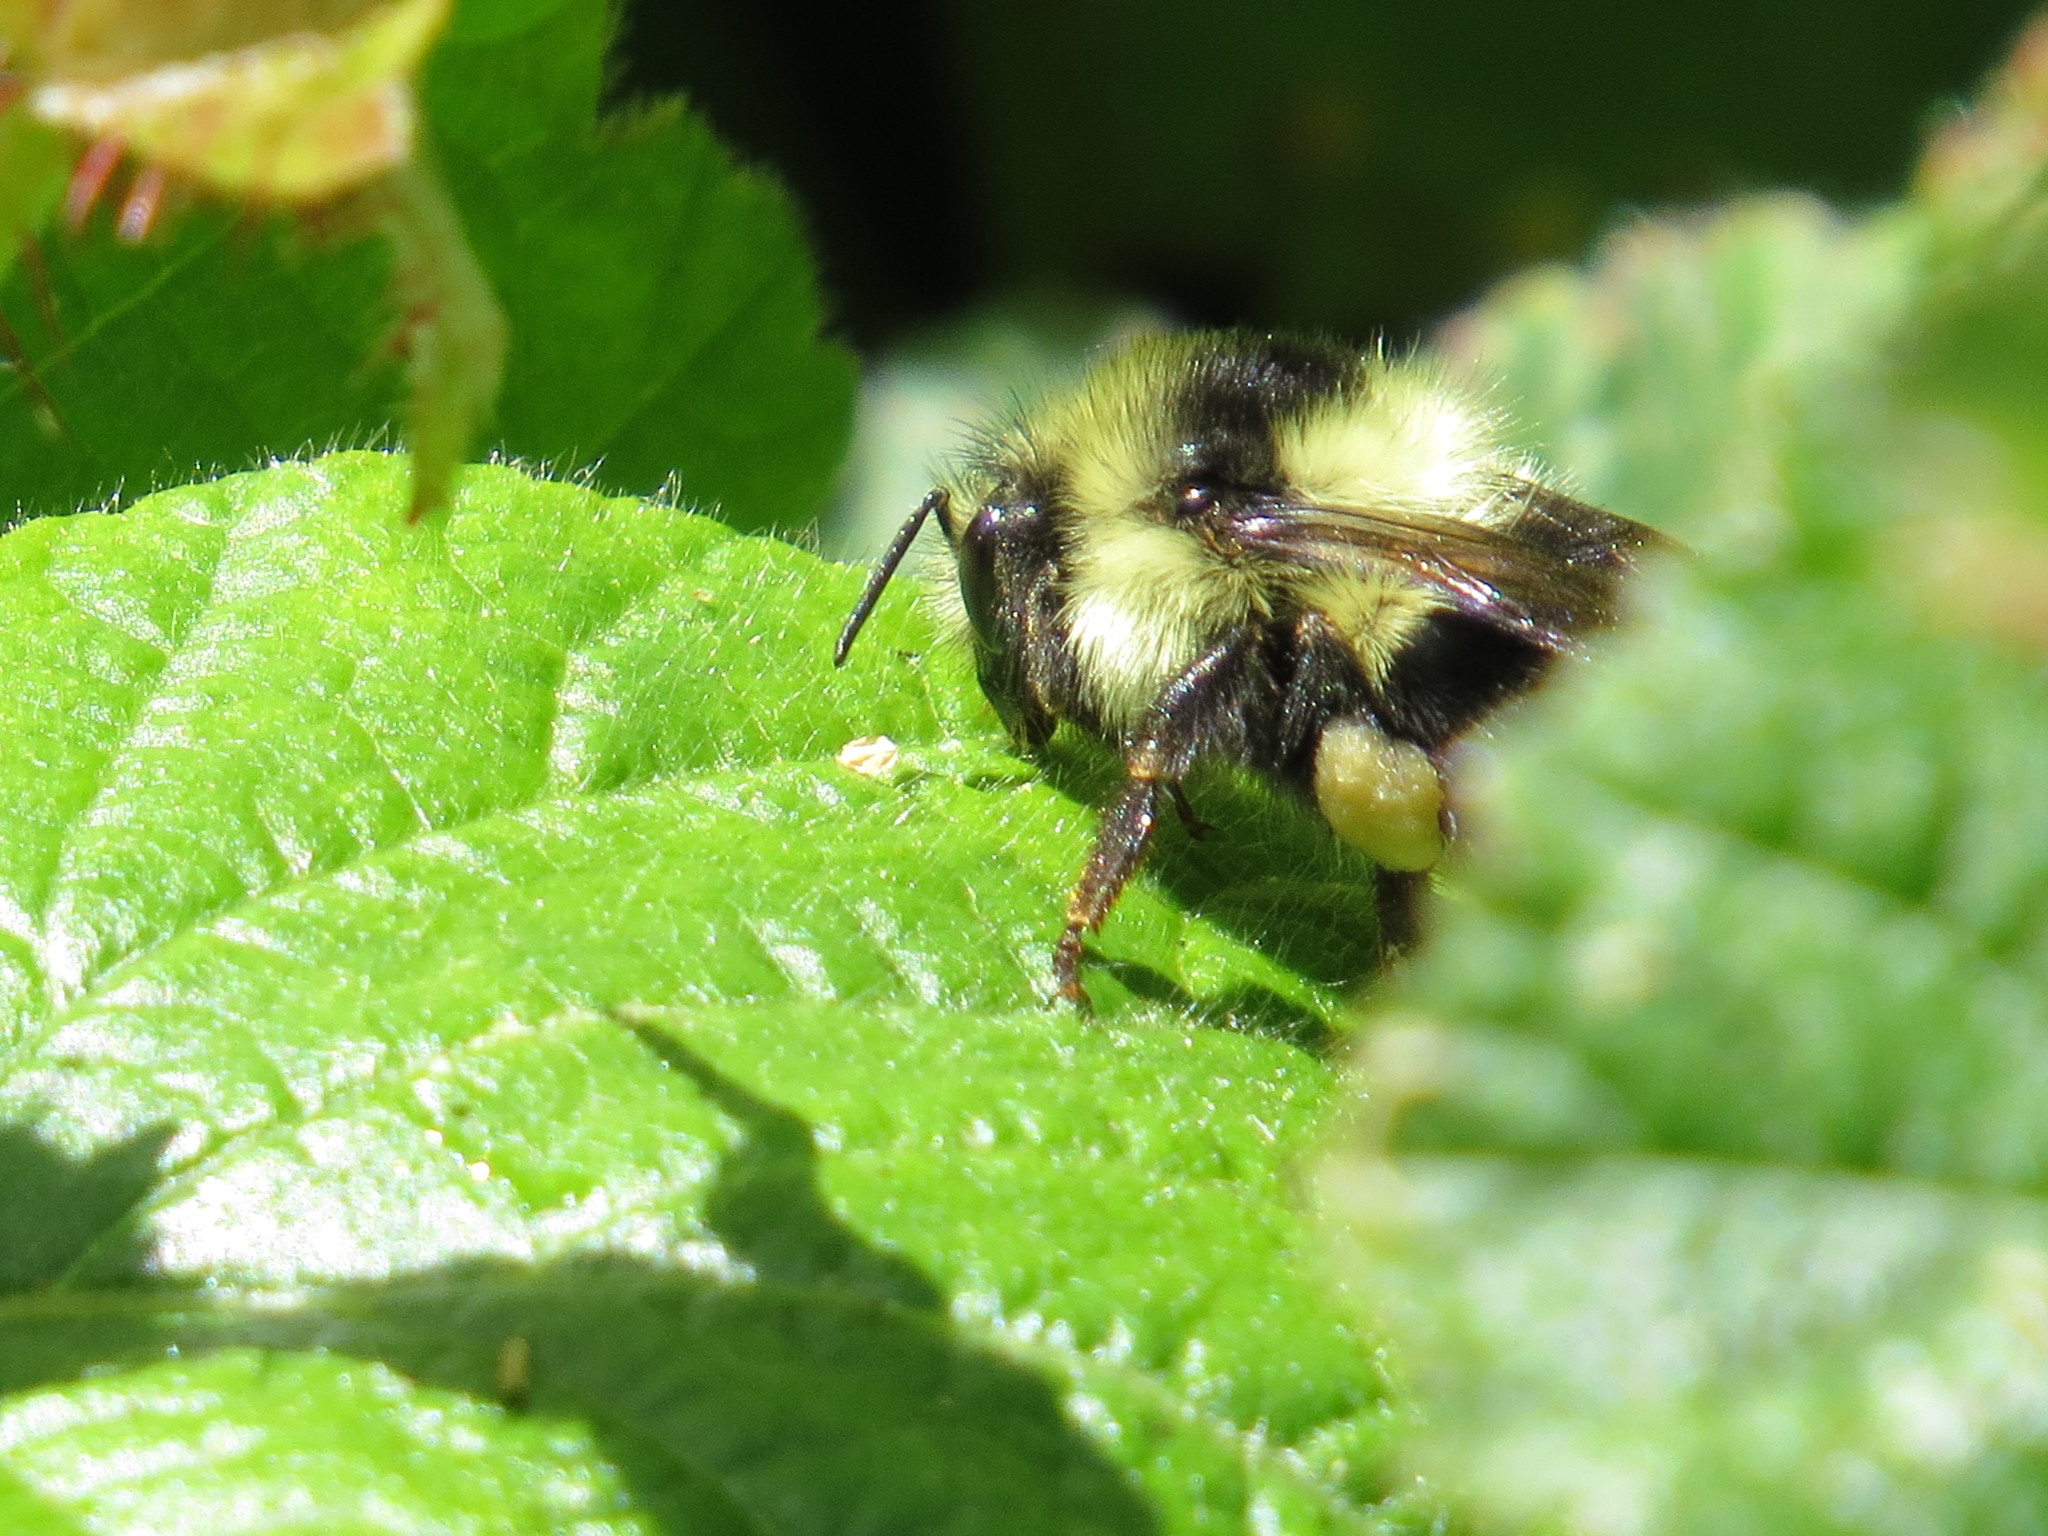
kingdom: Animalia
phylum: Arthropoda
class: Insecta
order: Hymenoptera
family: Apidae
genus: Bombus
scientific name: Bombus melanopygus
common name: Black tail bumble bee
